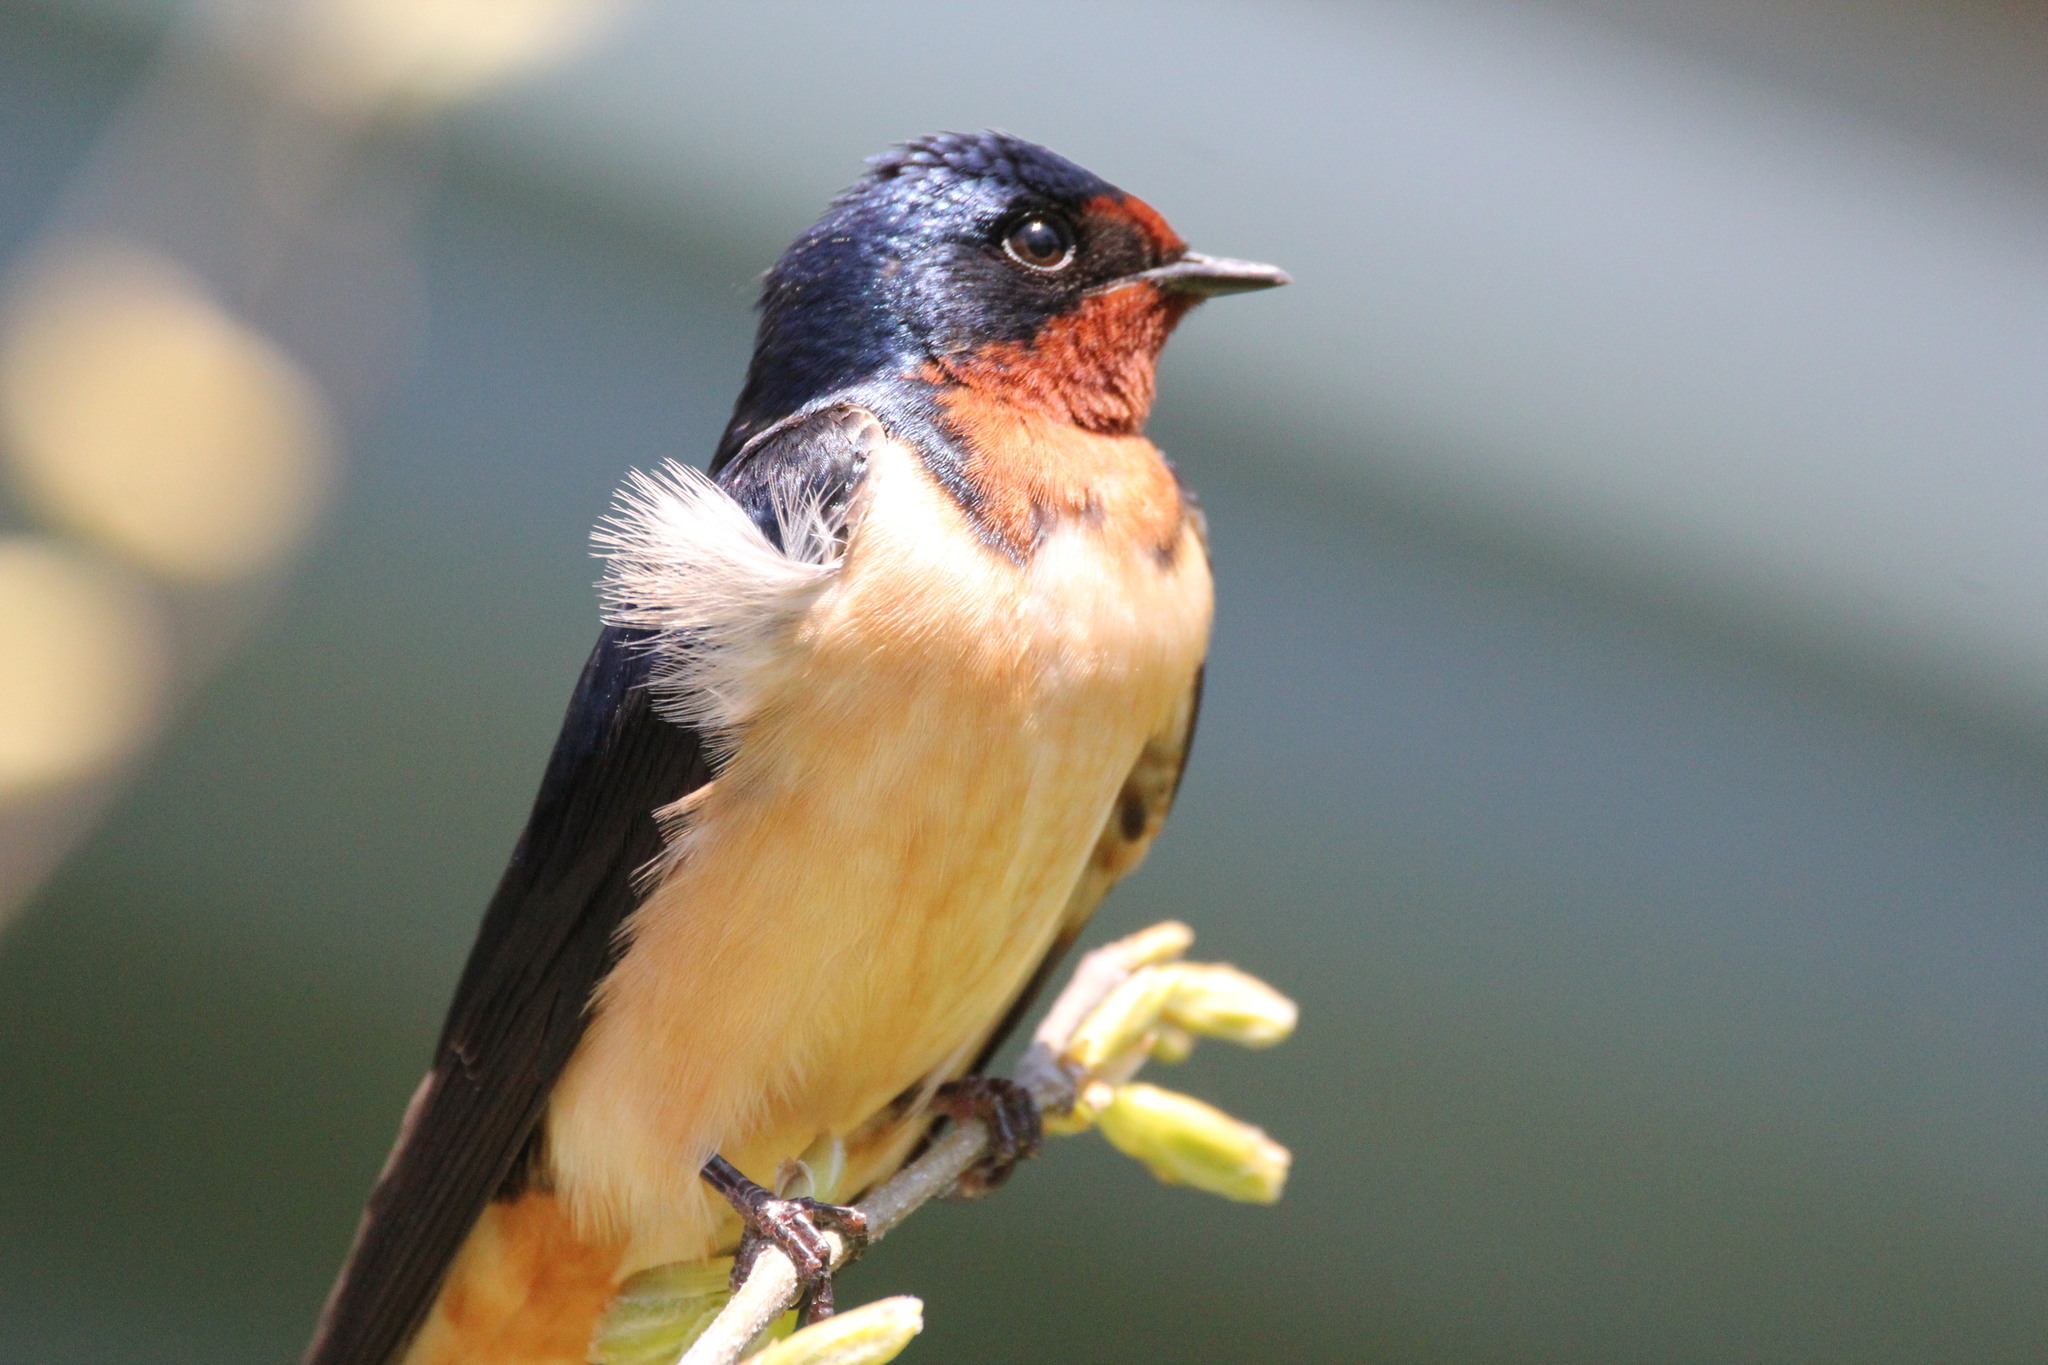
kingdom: Animalia
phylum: Chordata
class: Aves
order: Passeriformes
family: Hirundinidae
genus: Hirundo
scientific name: Hirundo rustica
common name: Barn swallow
